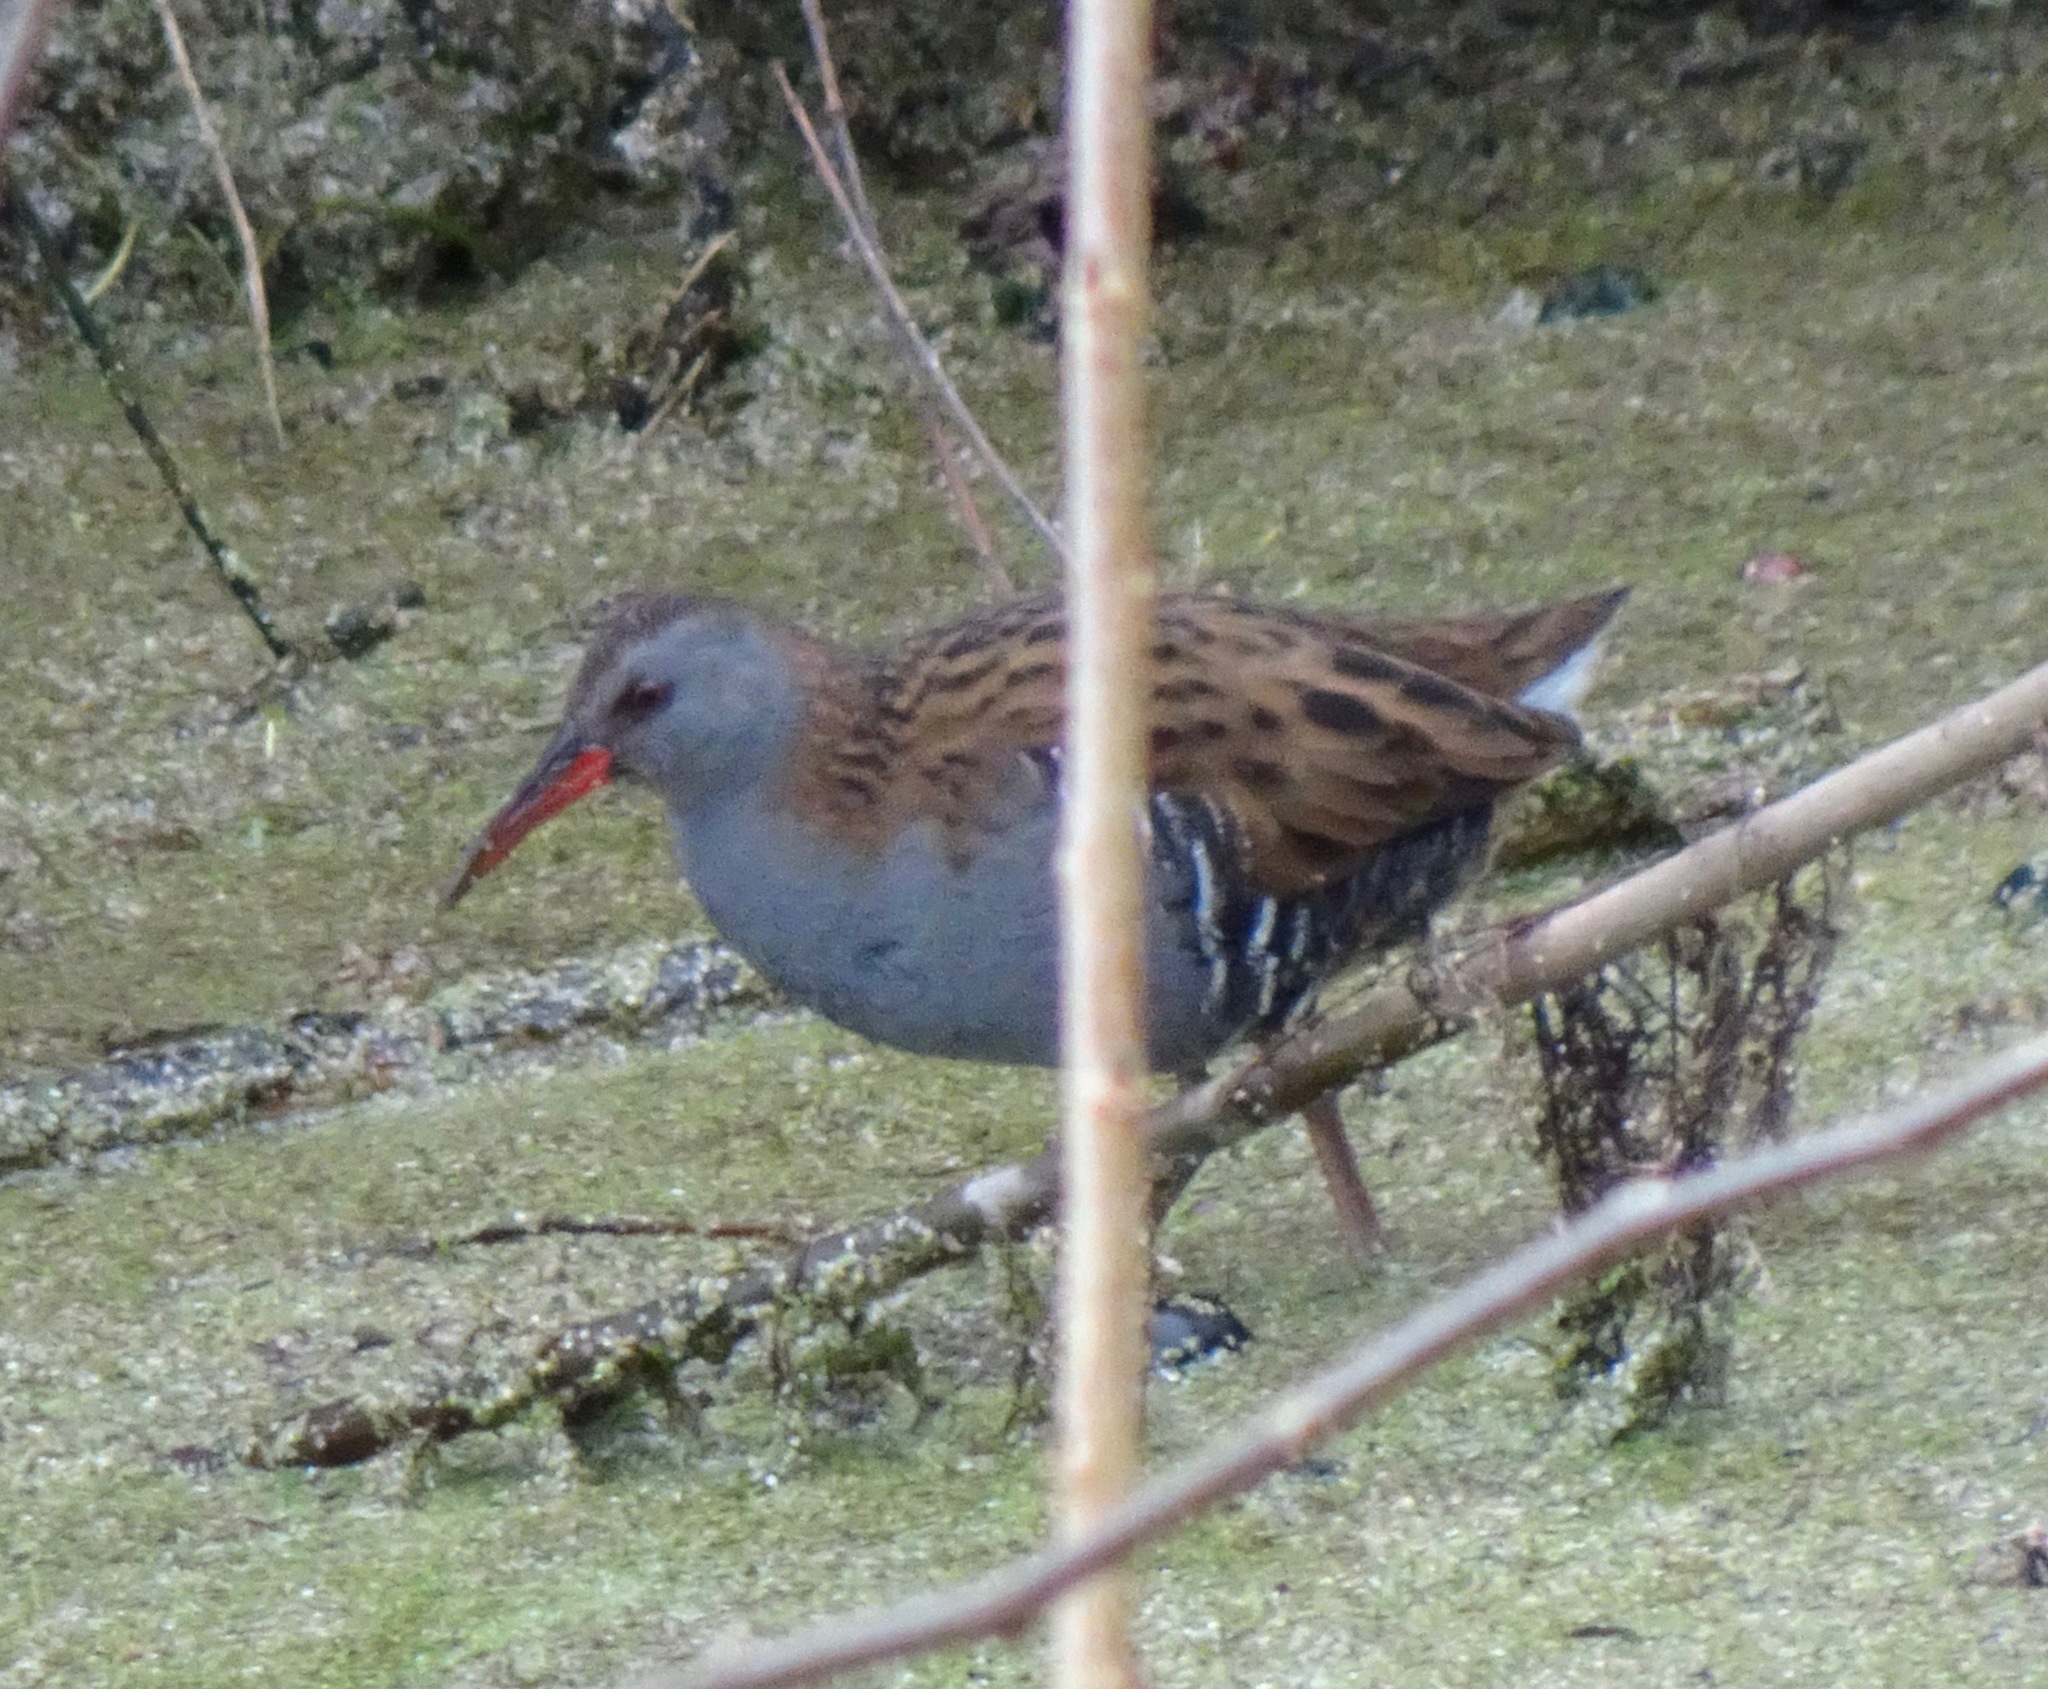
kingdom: Animalia
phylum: Chordata
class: Aves
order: Gruiformes
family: Rallidae
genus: Rallus
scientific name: Rallus aquaticus
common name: Water rail
